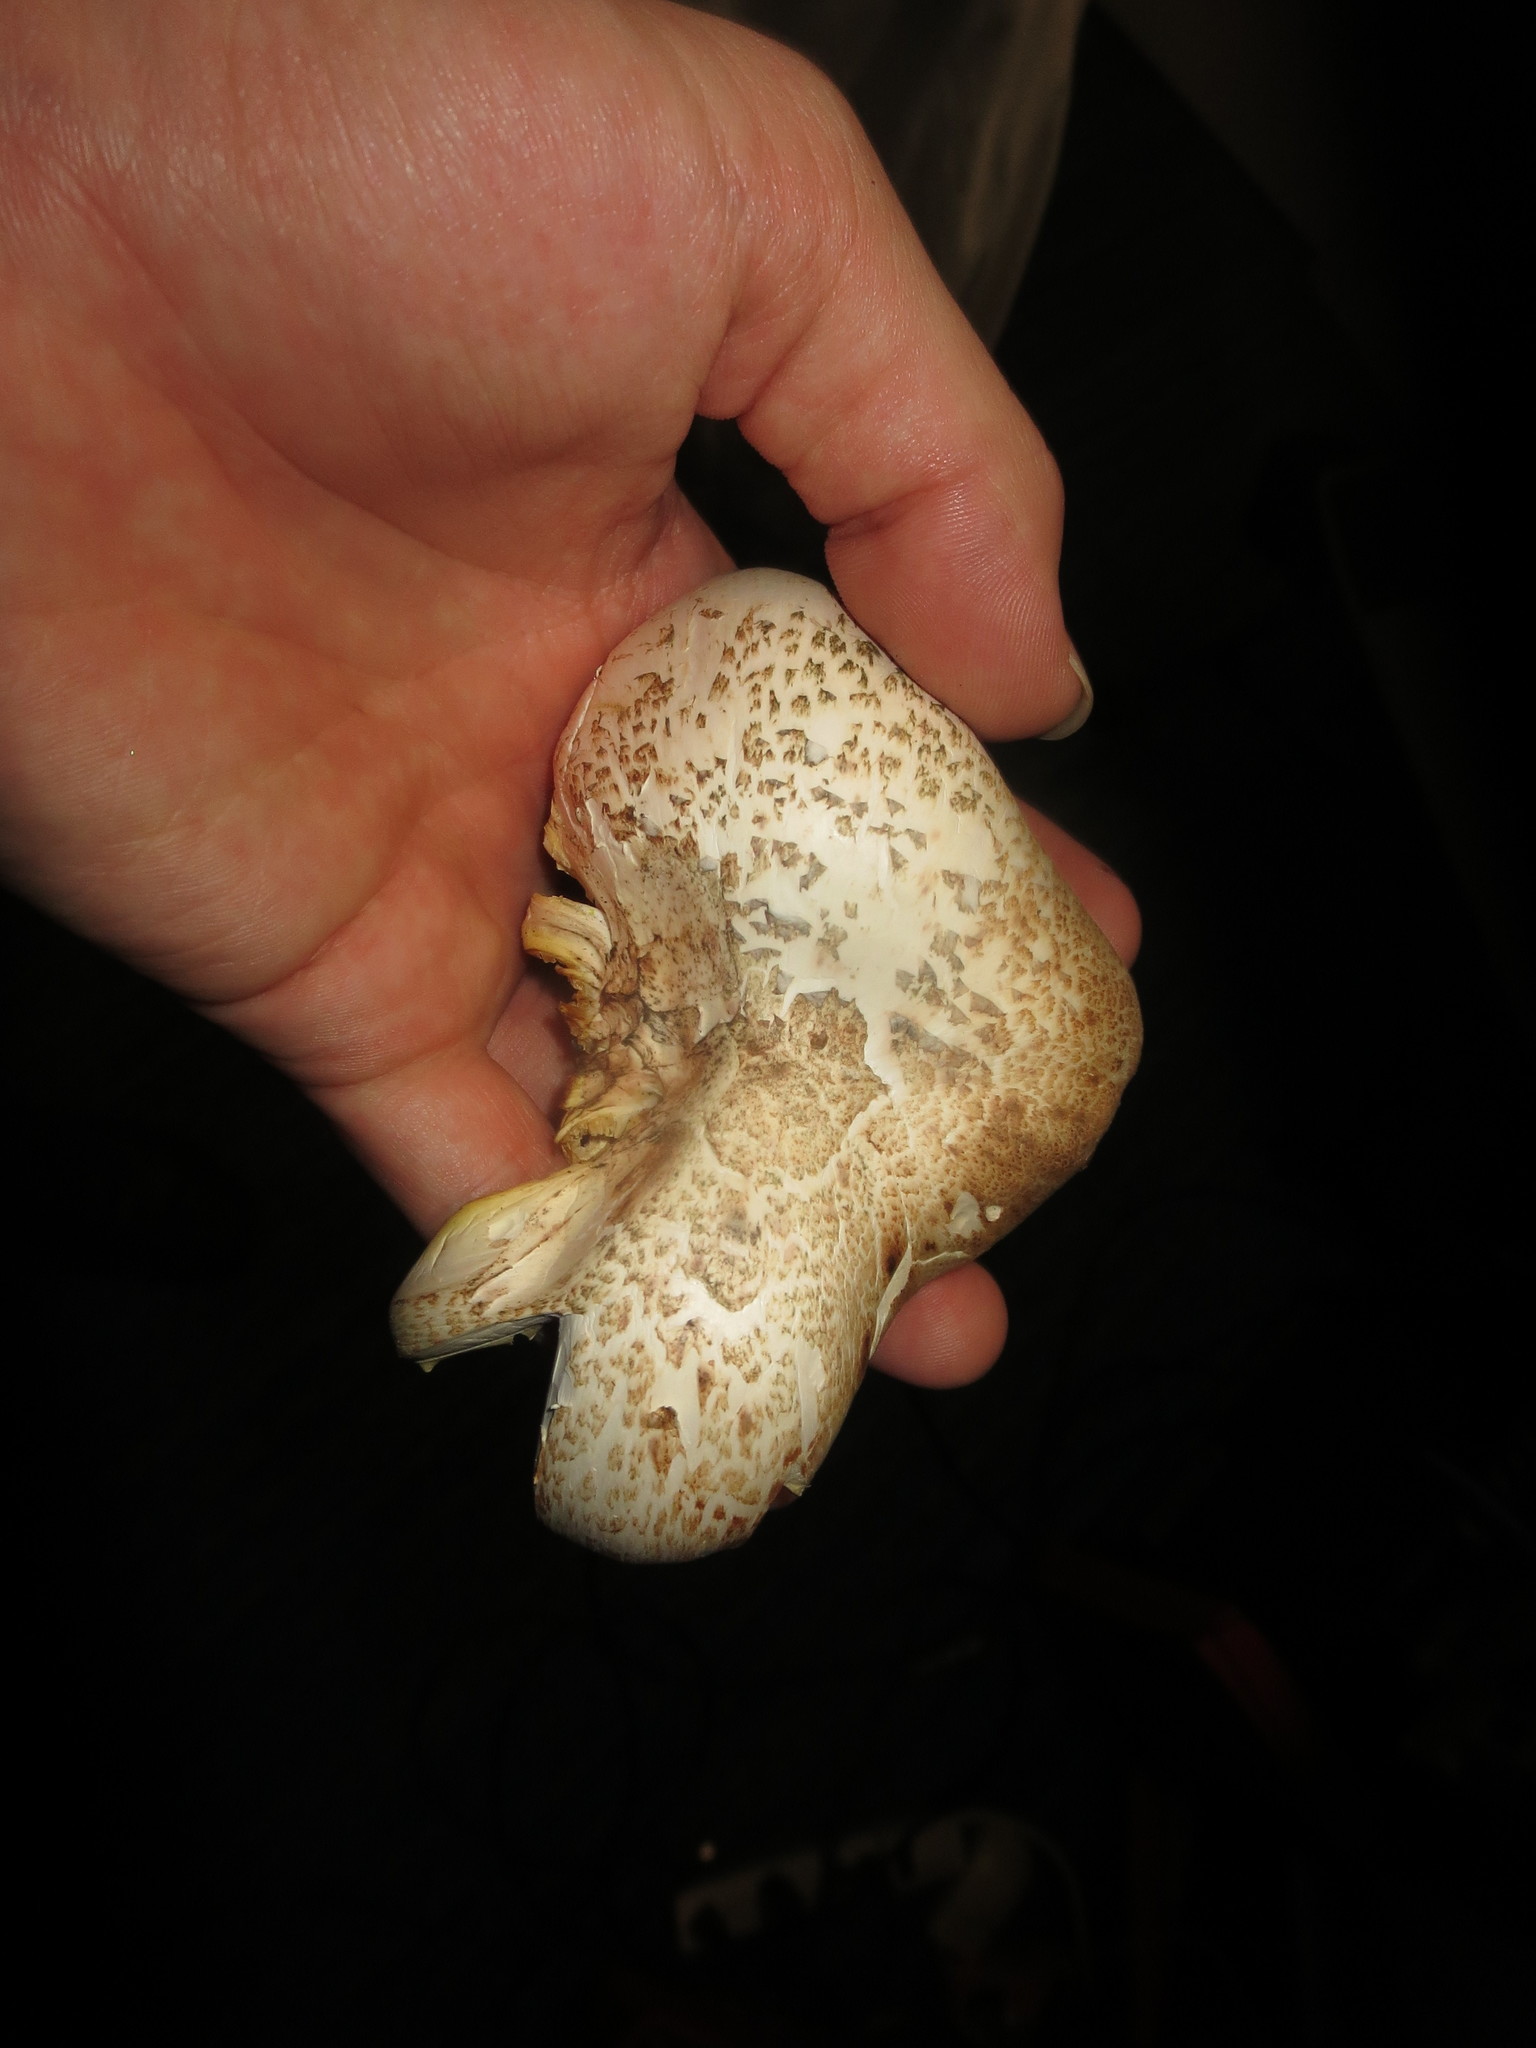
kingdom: Fungi
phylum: Basidiomycota
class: Agaricomycetes
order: Gloeophyllales
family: Gloeophyllaceae
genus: Neolentinus
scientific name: Neolentinus lepideus
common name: Scaly sawgill
